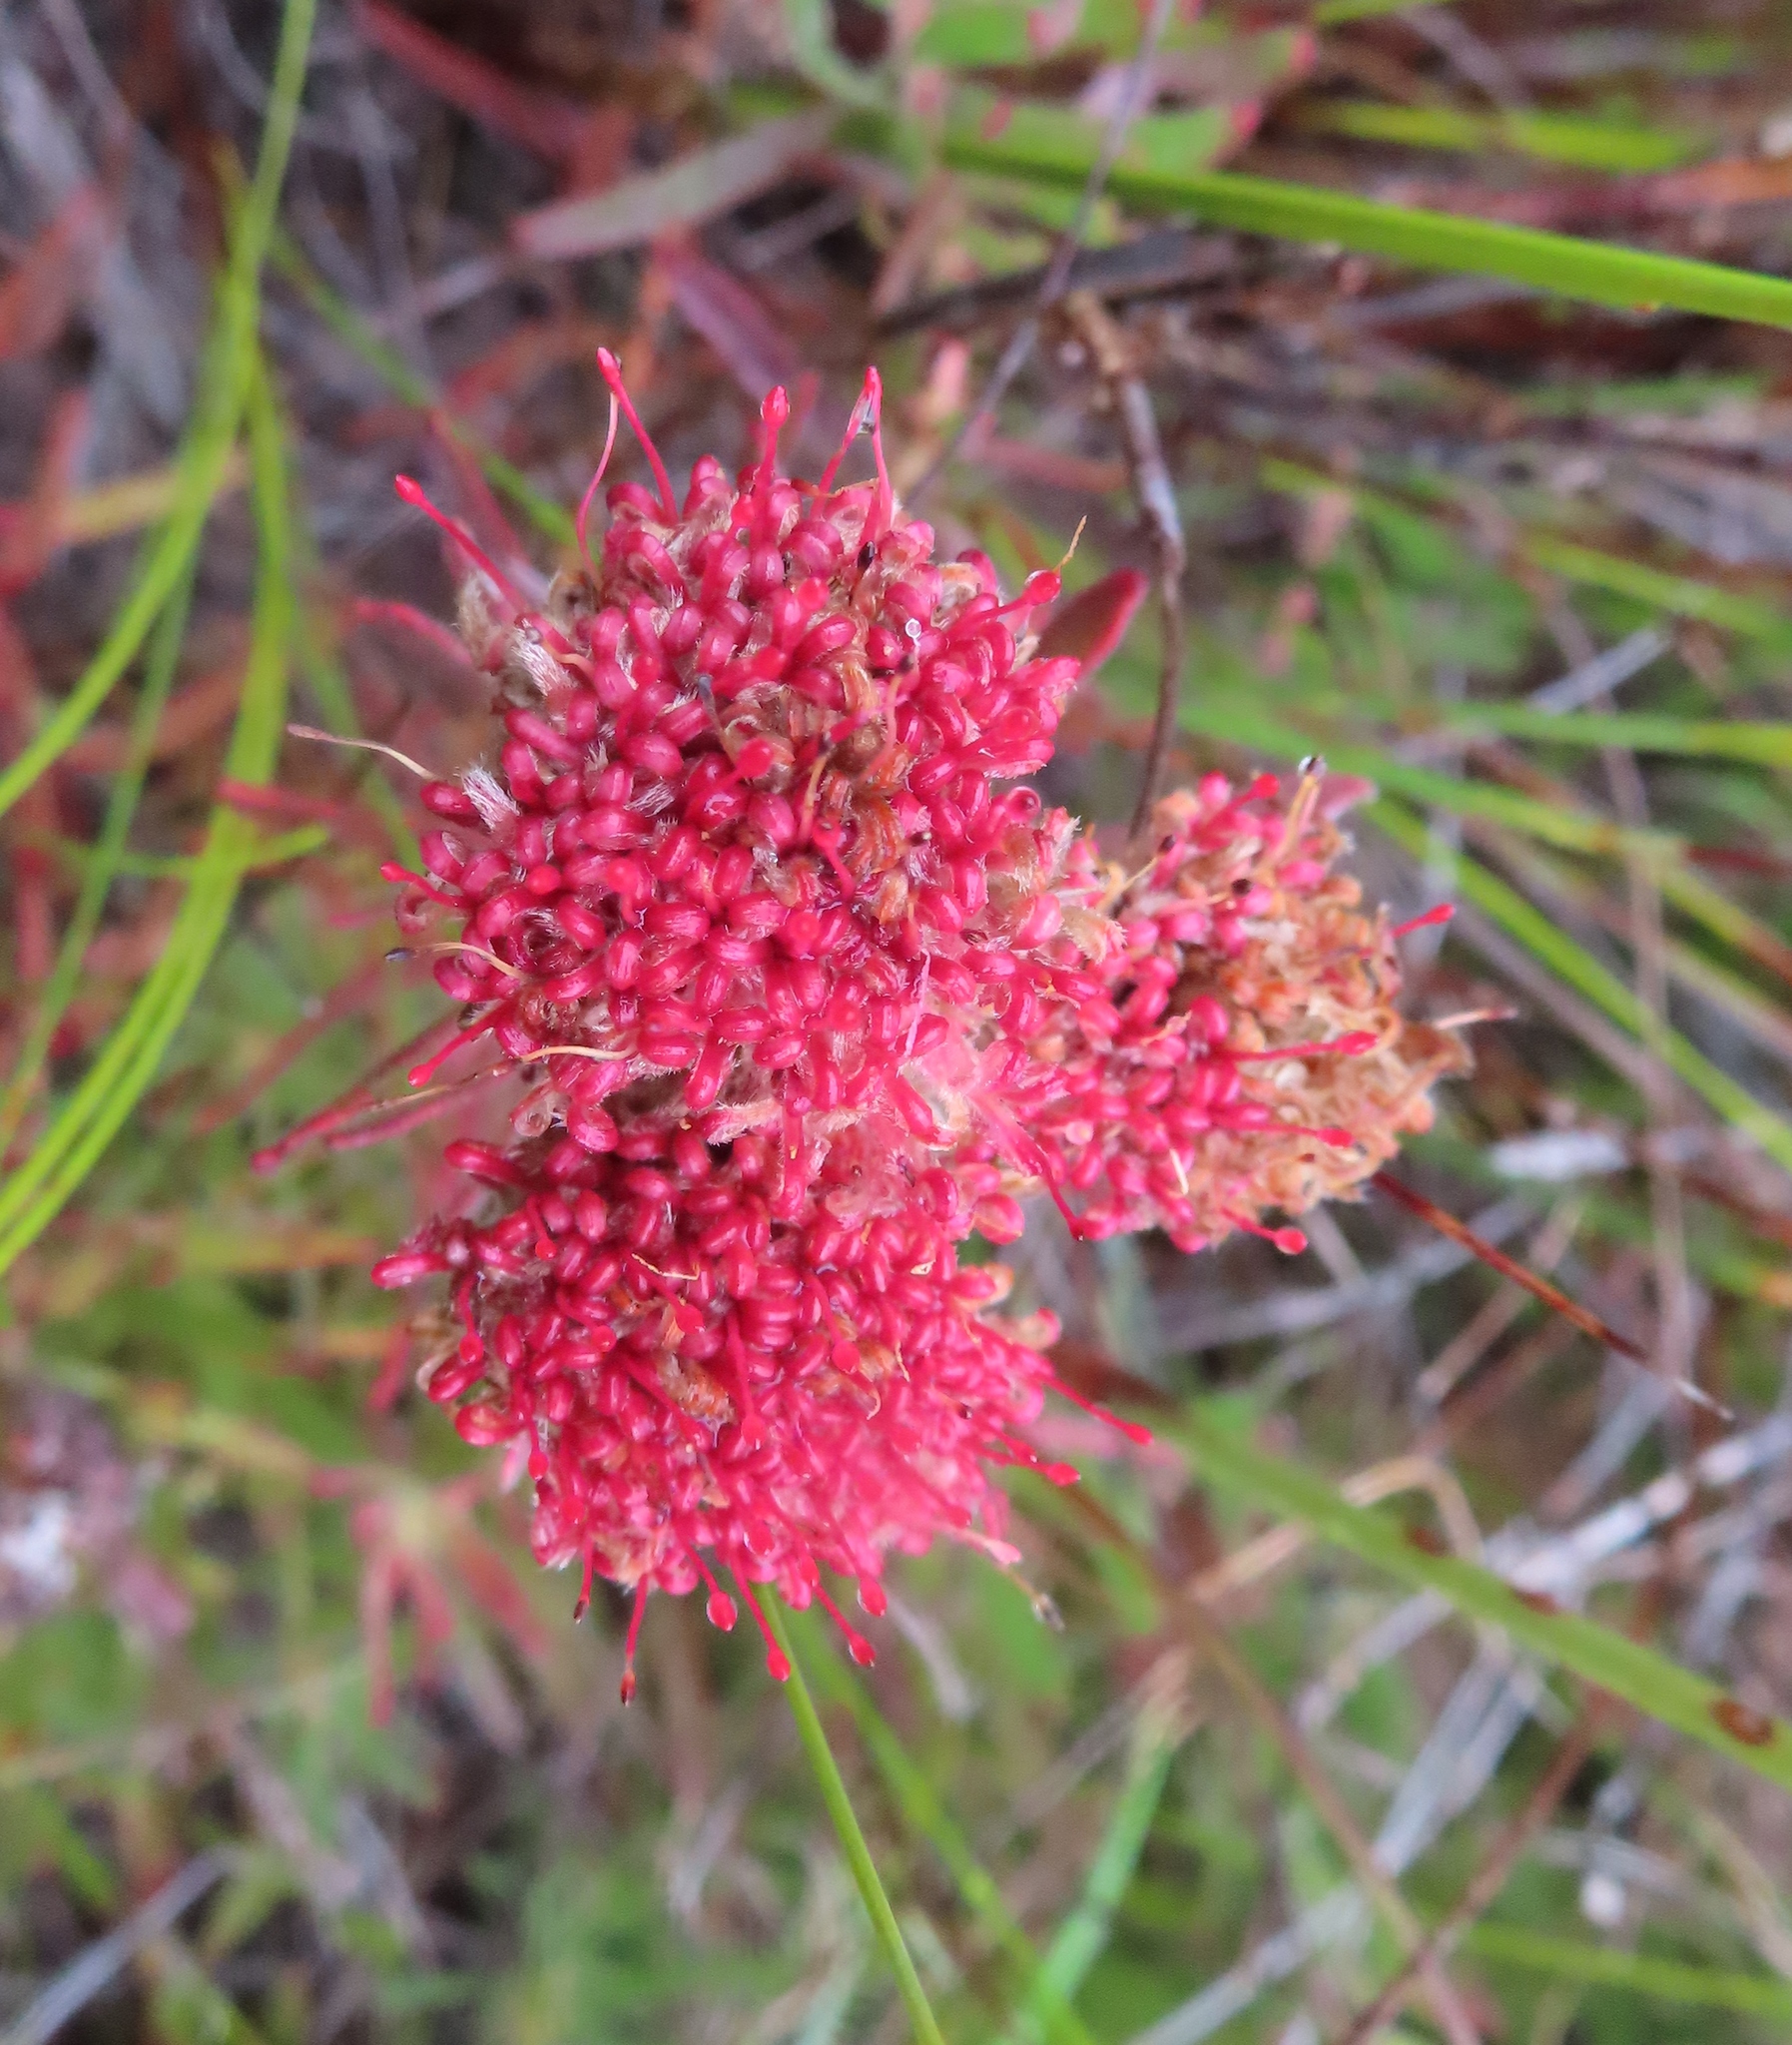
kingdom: Plantae
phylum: Tracheophyta
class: Magnoliopsida
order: Proteales
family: Proteaceae
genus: Leucospermum
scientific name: Leucospermum heterophyllum
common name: Trident pincushion
